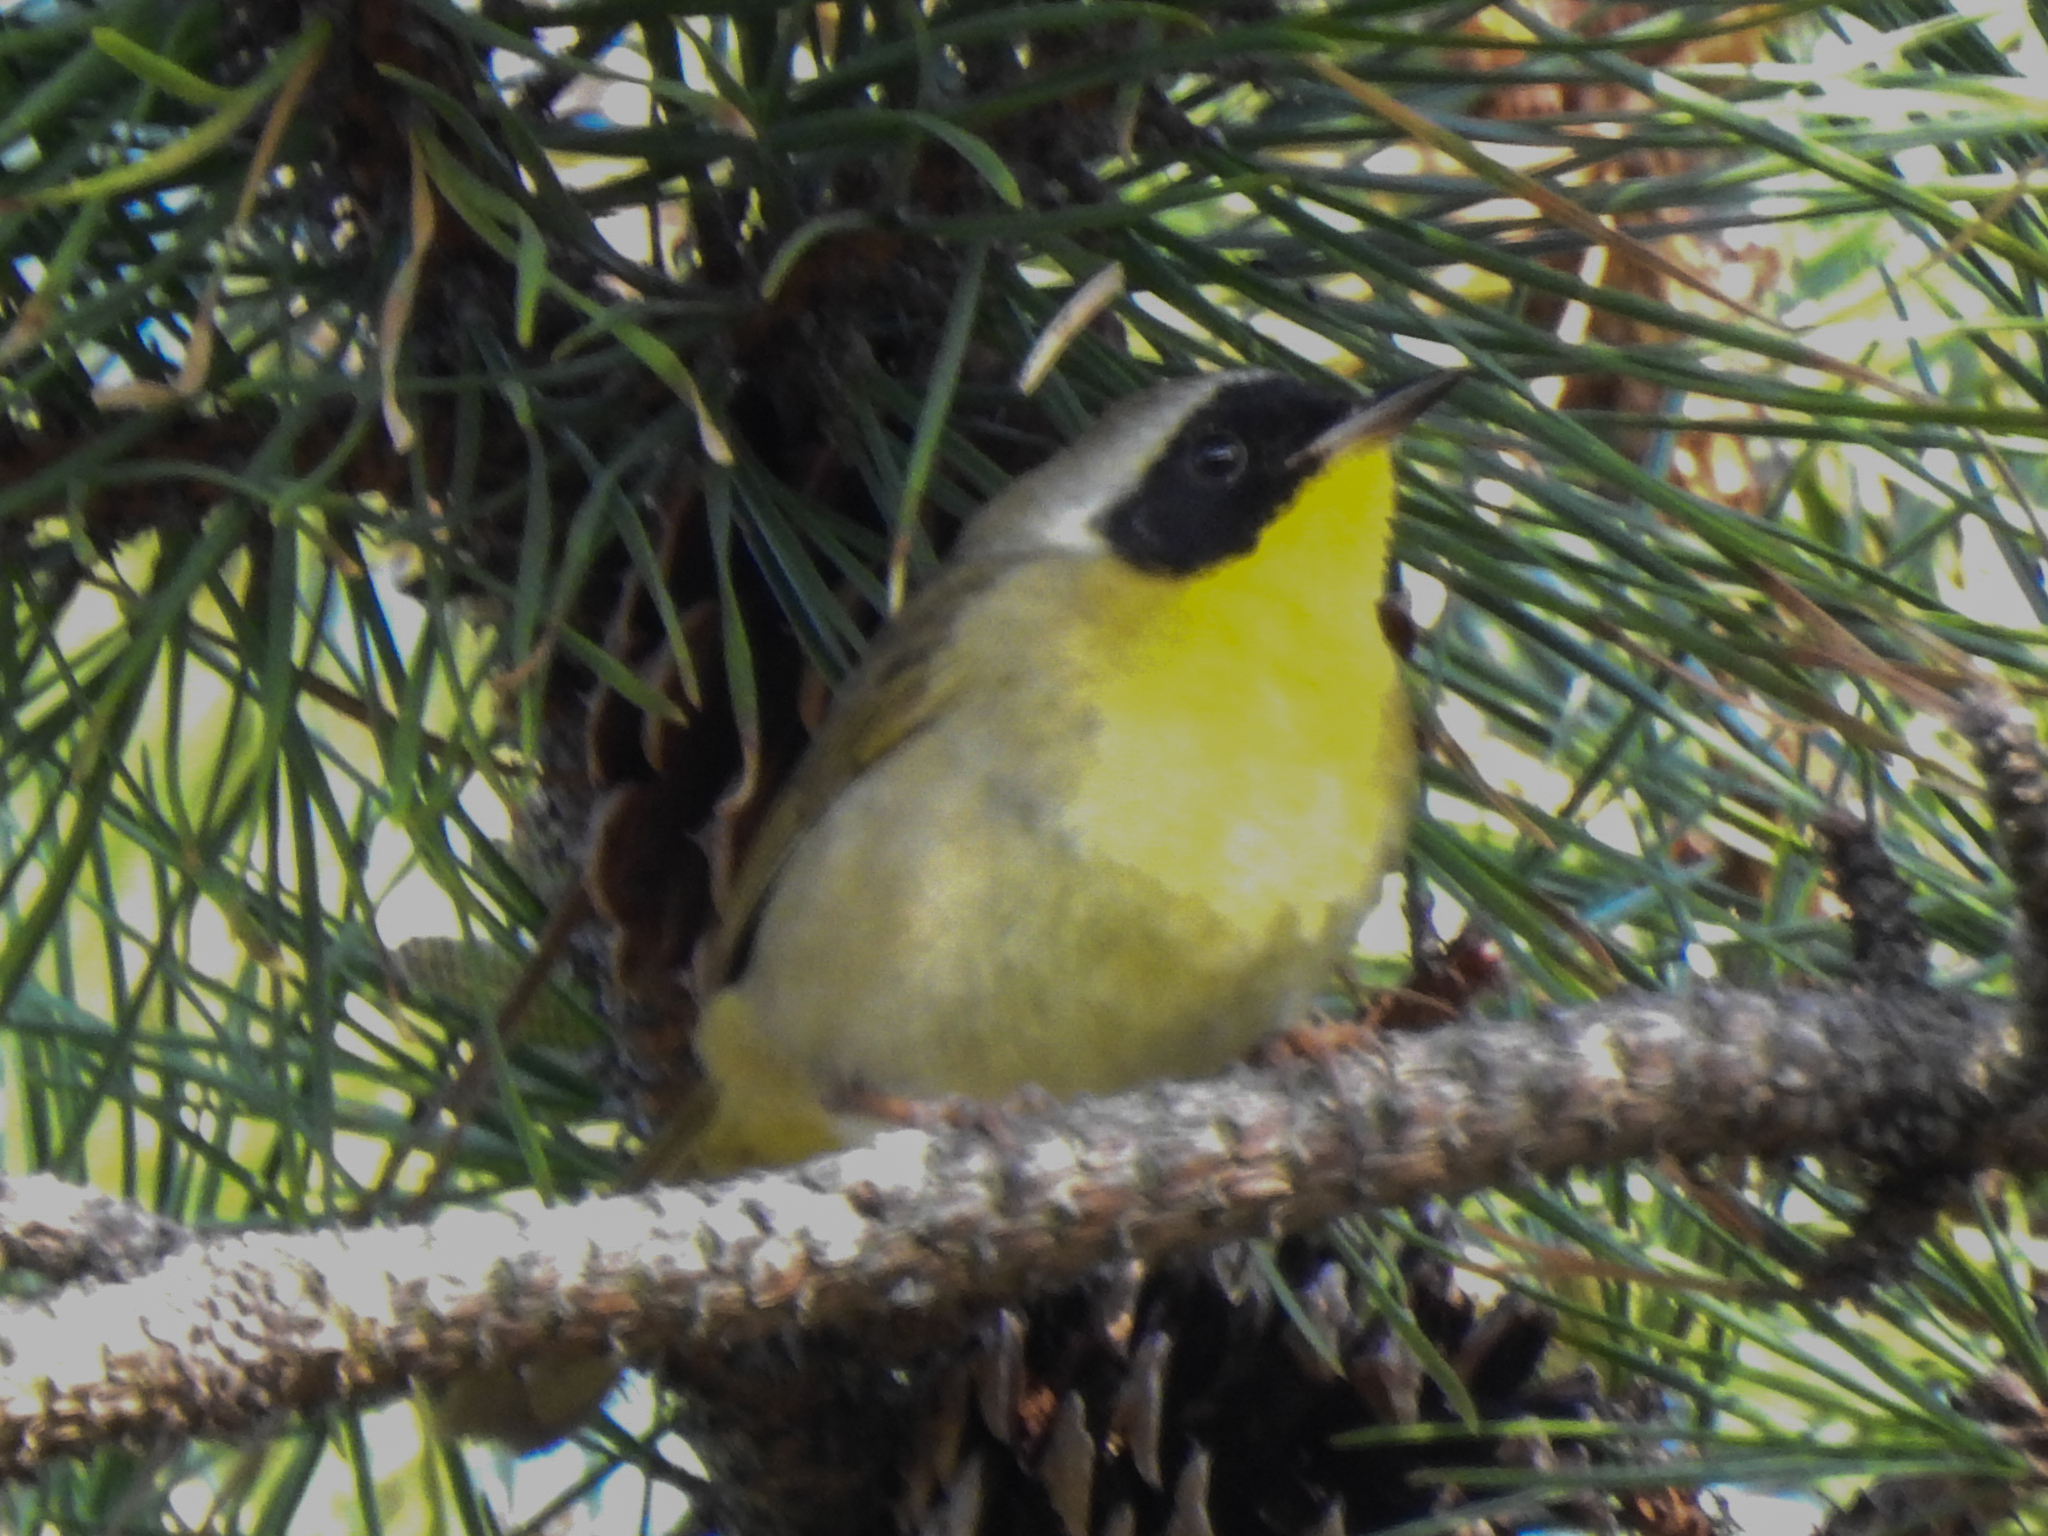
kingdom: Animalia
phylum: Chordata
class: Aves
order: Passeriformes
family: Parulidae
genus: Geothlypis
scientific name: Geothlypis trichas
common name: Common yellowthroat
